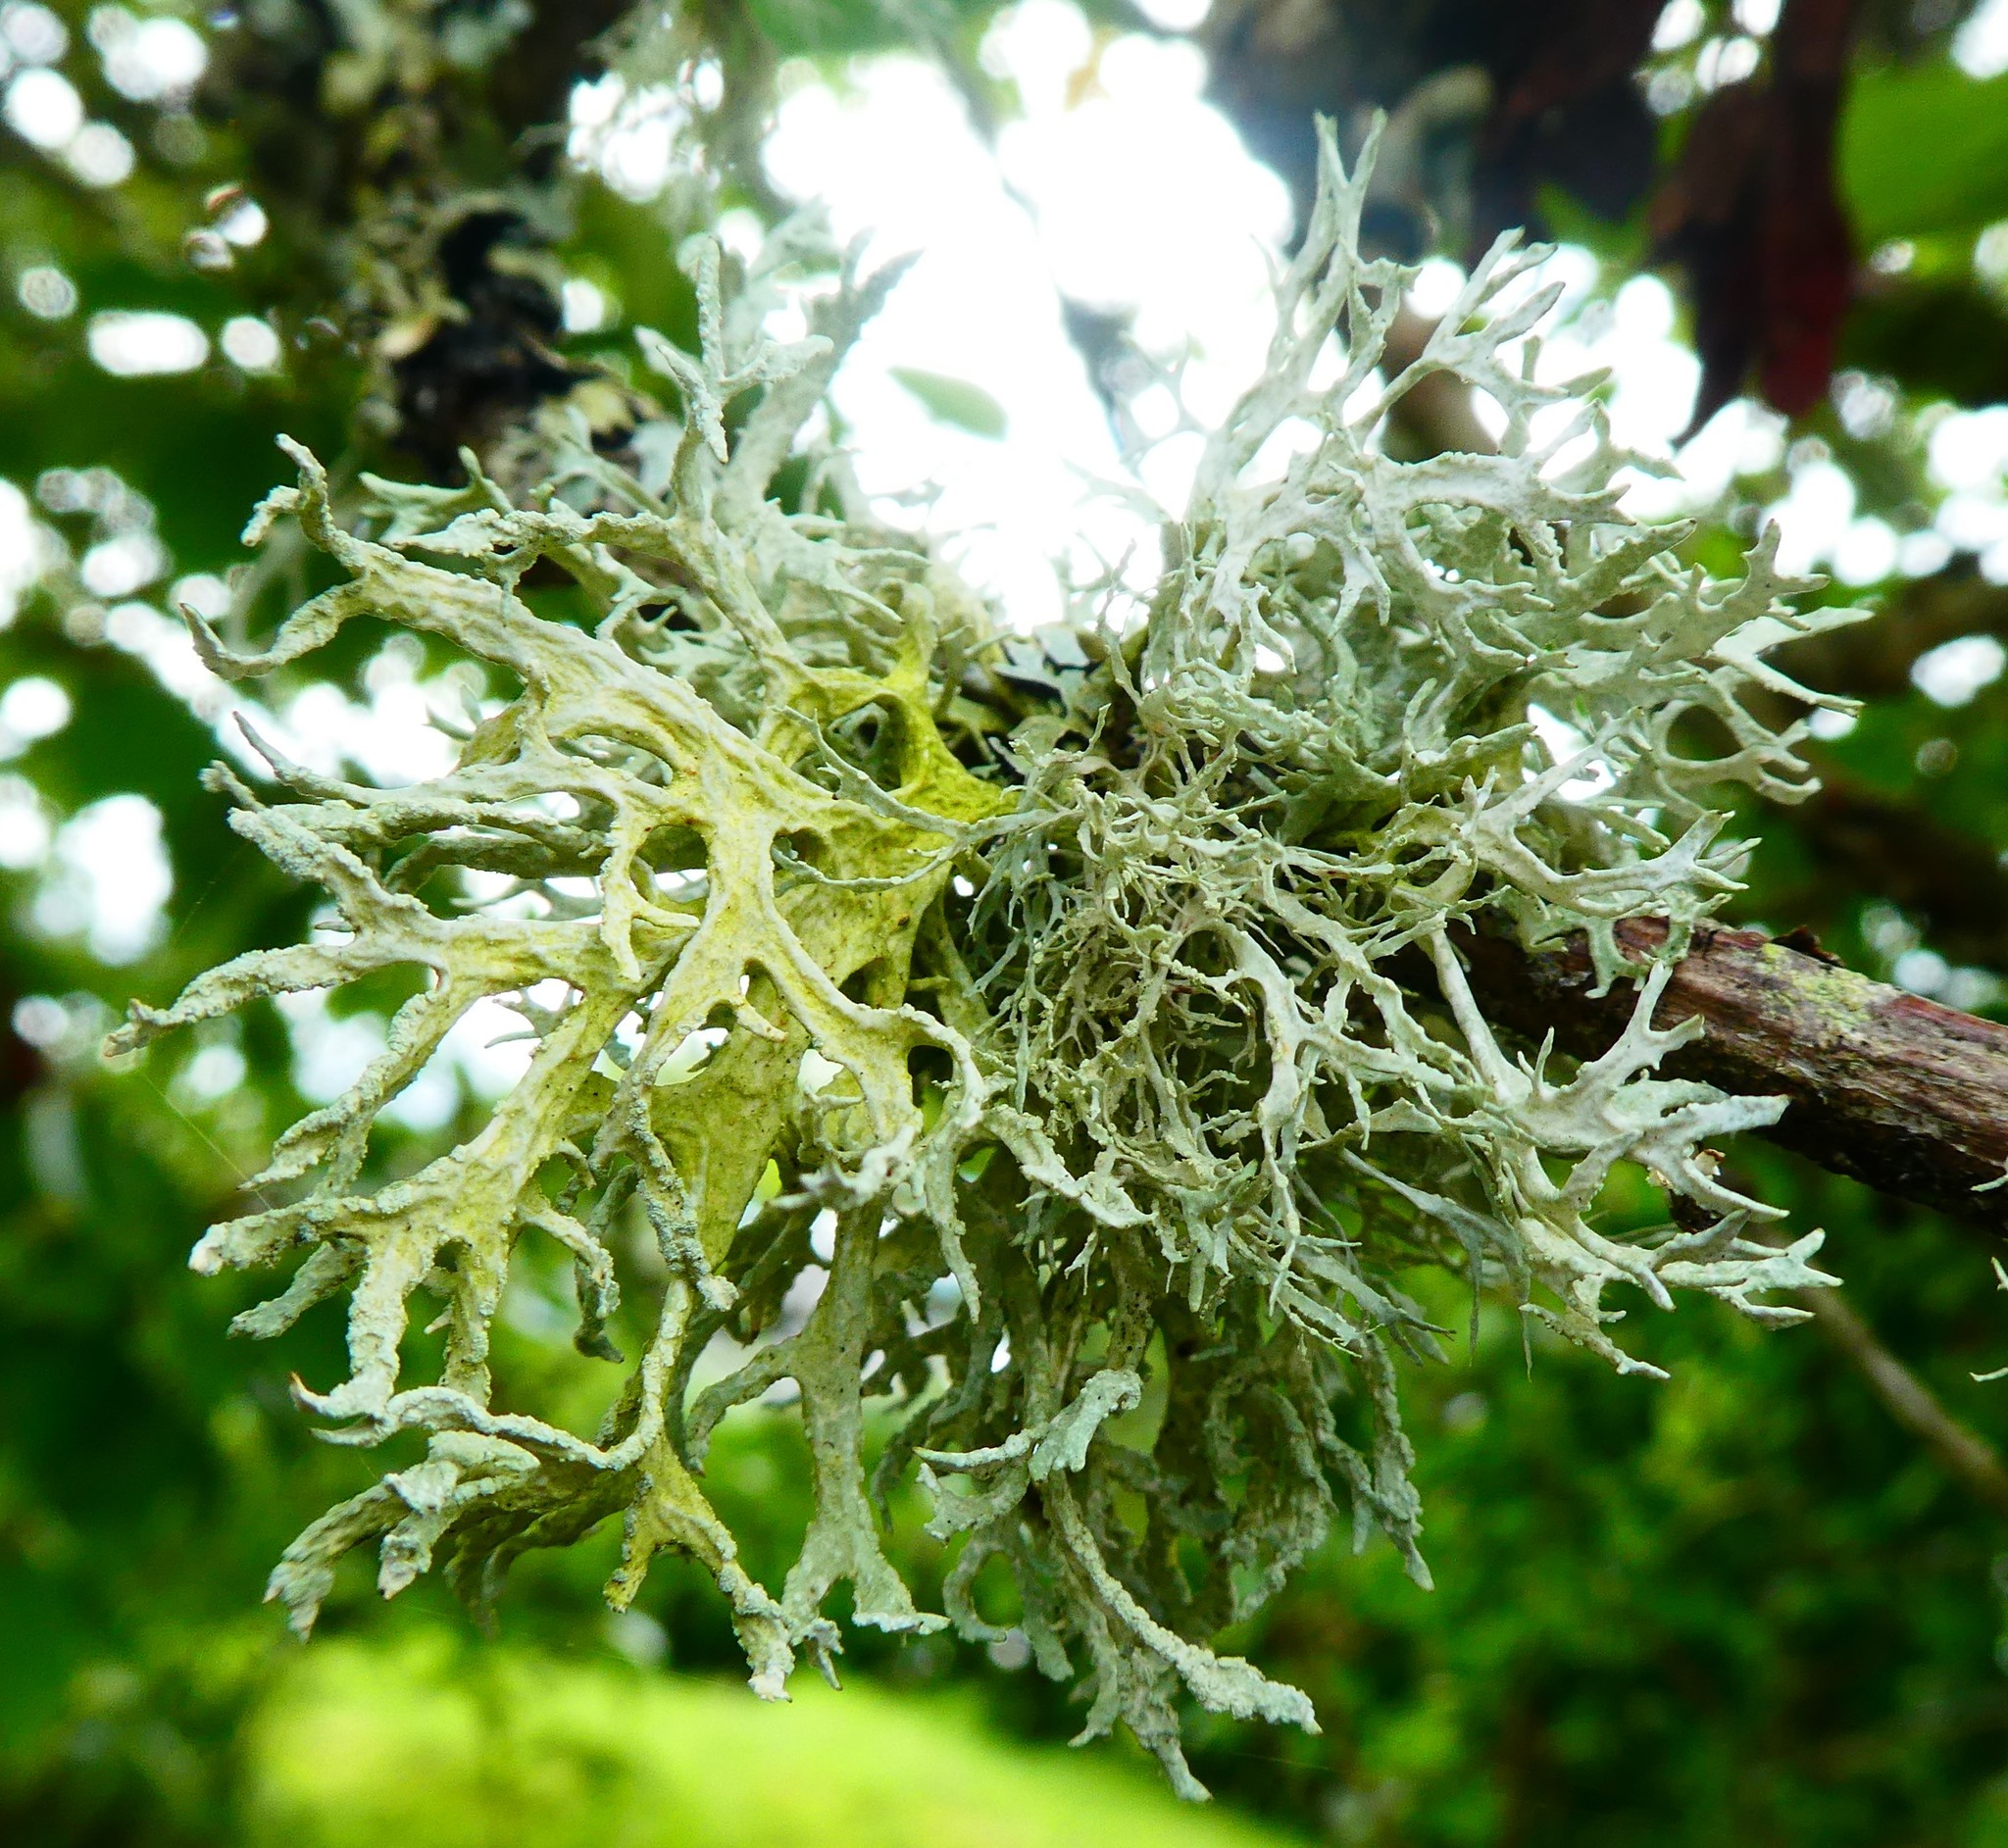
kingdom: Fungi
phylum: Ascomycota
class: Lecanoromycetes
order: Lecanorales
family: Parmeliaceae
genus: Evernia
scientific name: Evernia prunastri
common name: Oak moss
